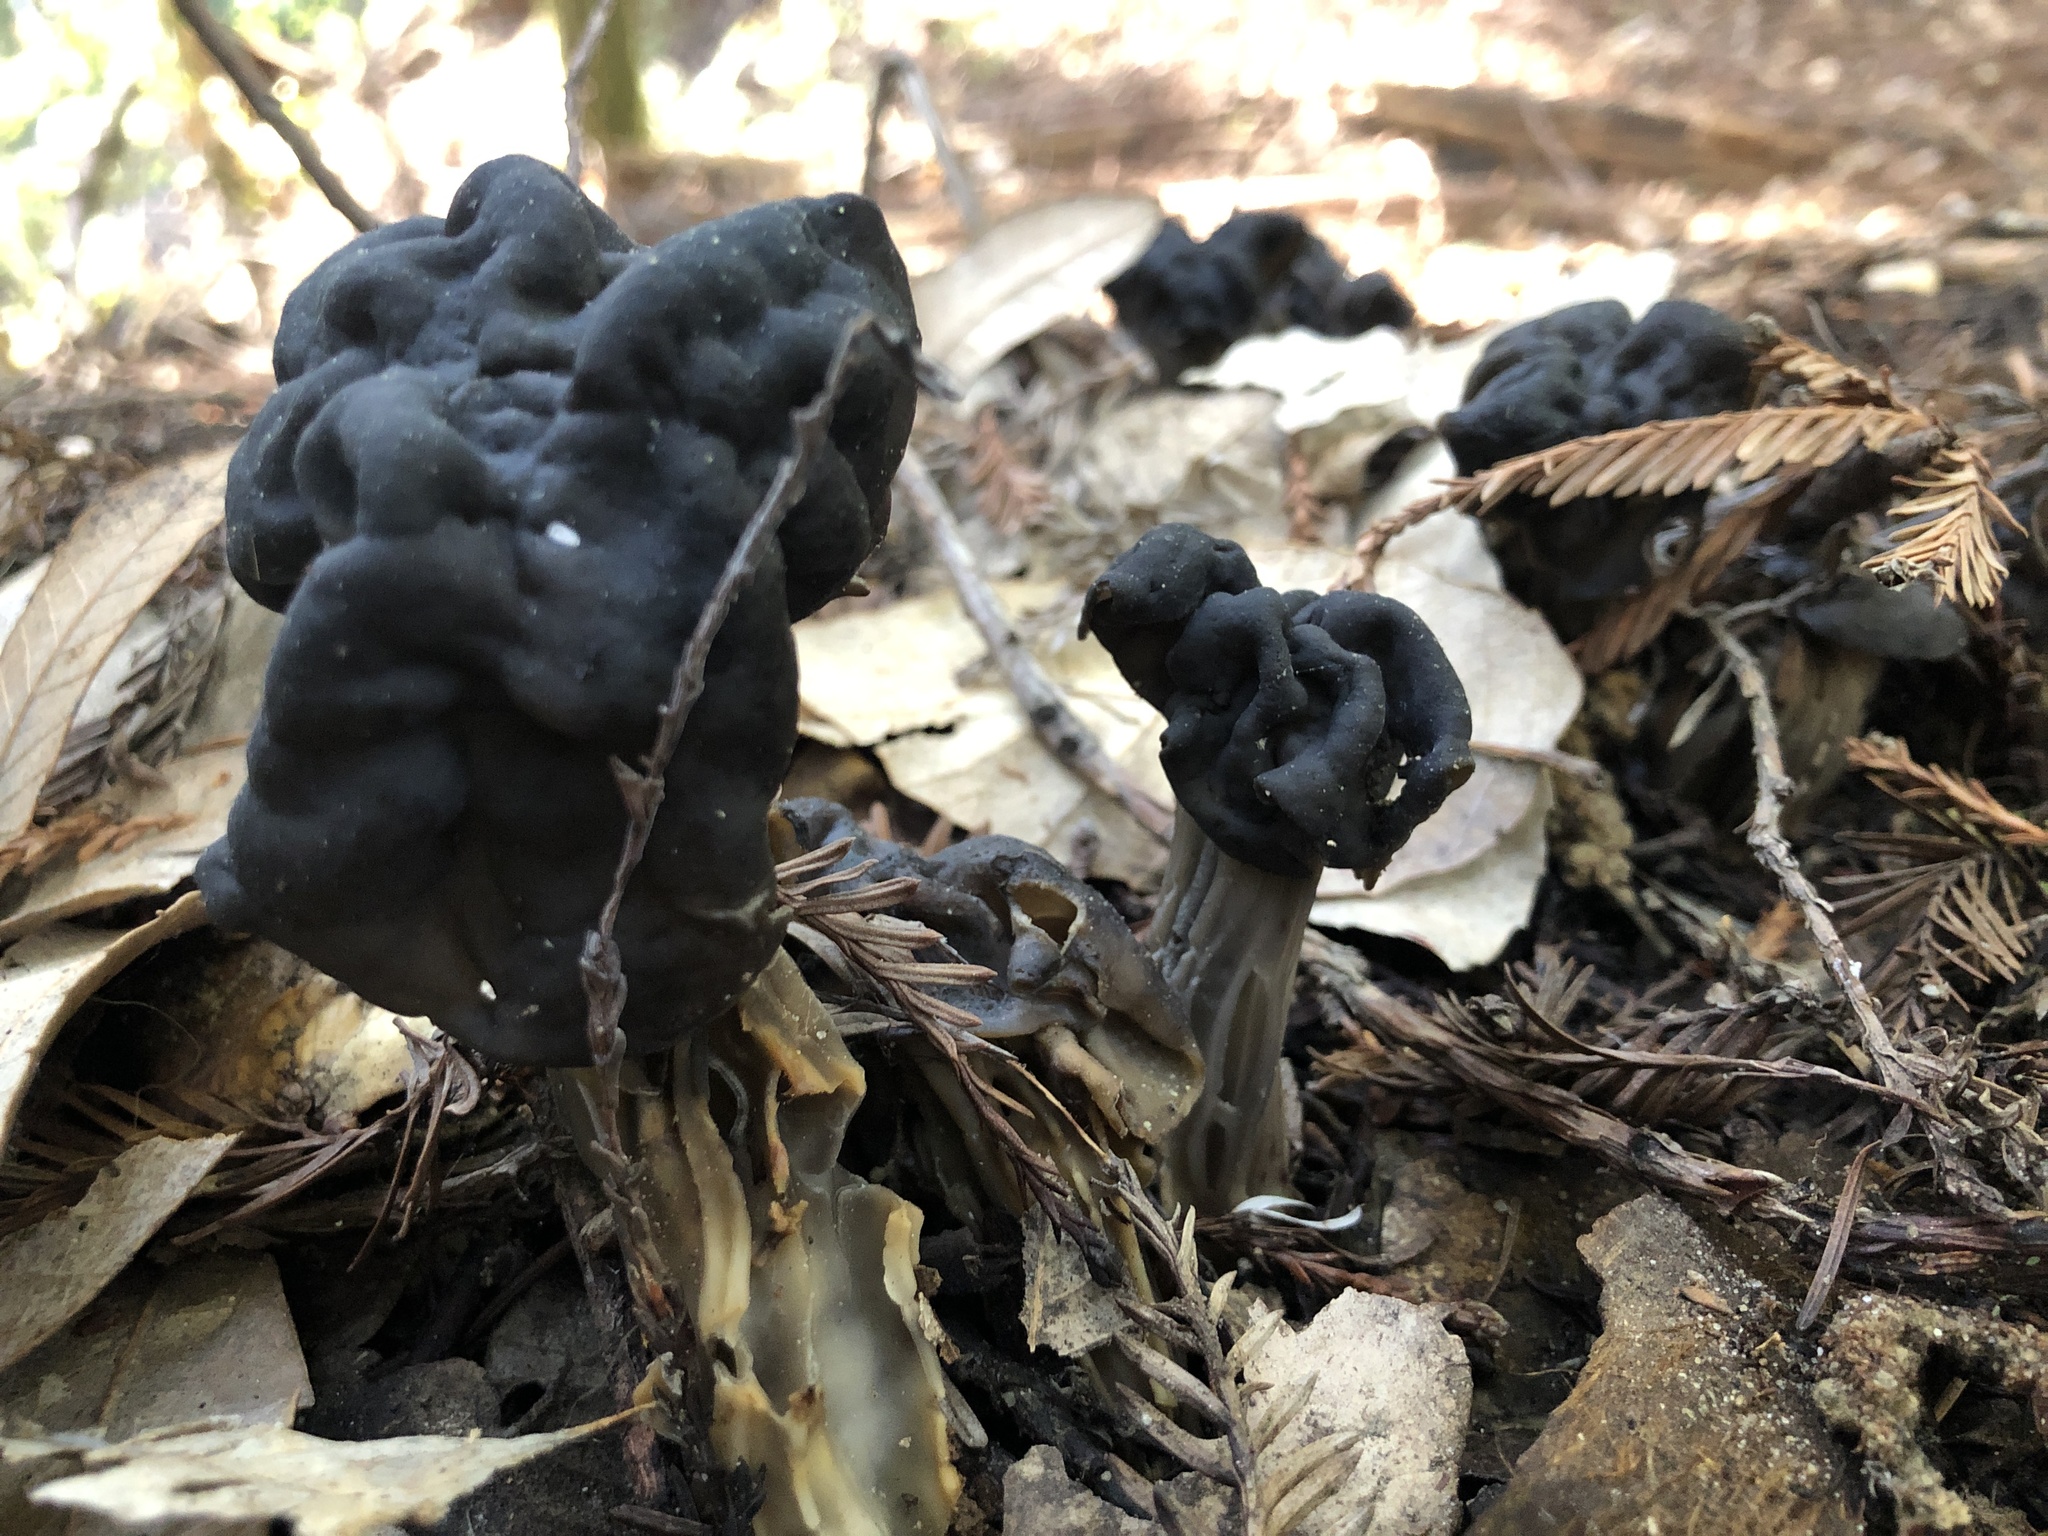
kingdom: Fungi
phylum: Ascomycota
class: Pezizomycetes
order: Pezizales
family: Helvellaceae
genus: Helvella
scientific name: Helvella dryophila
